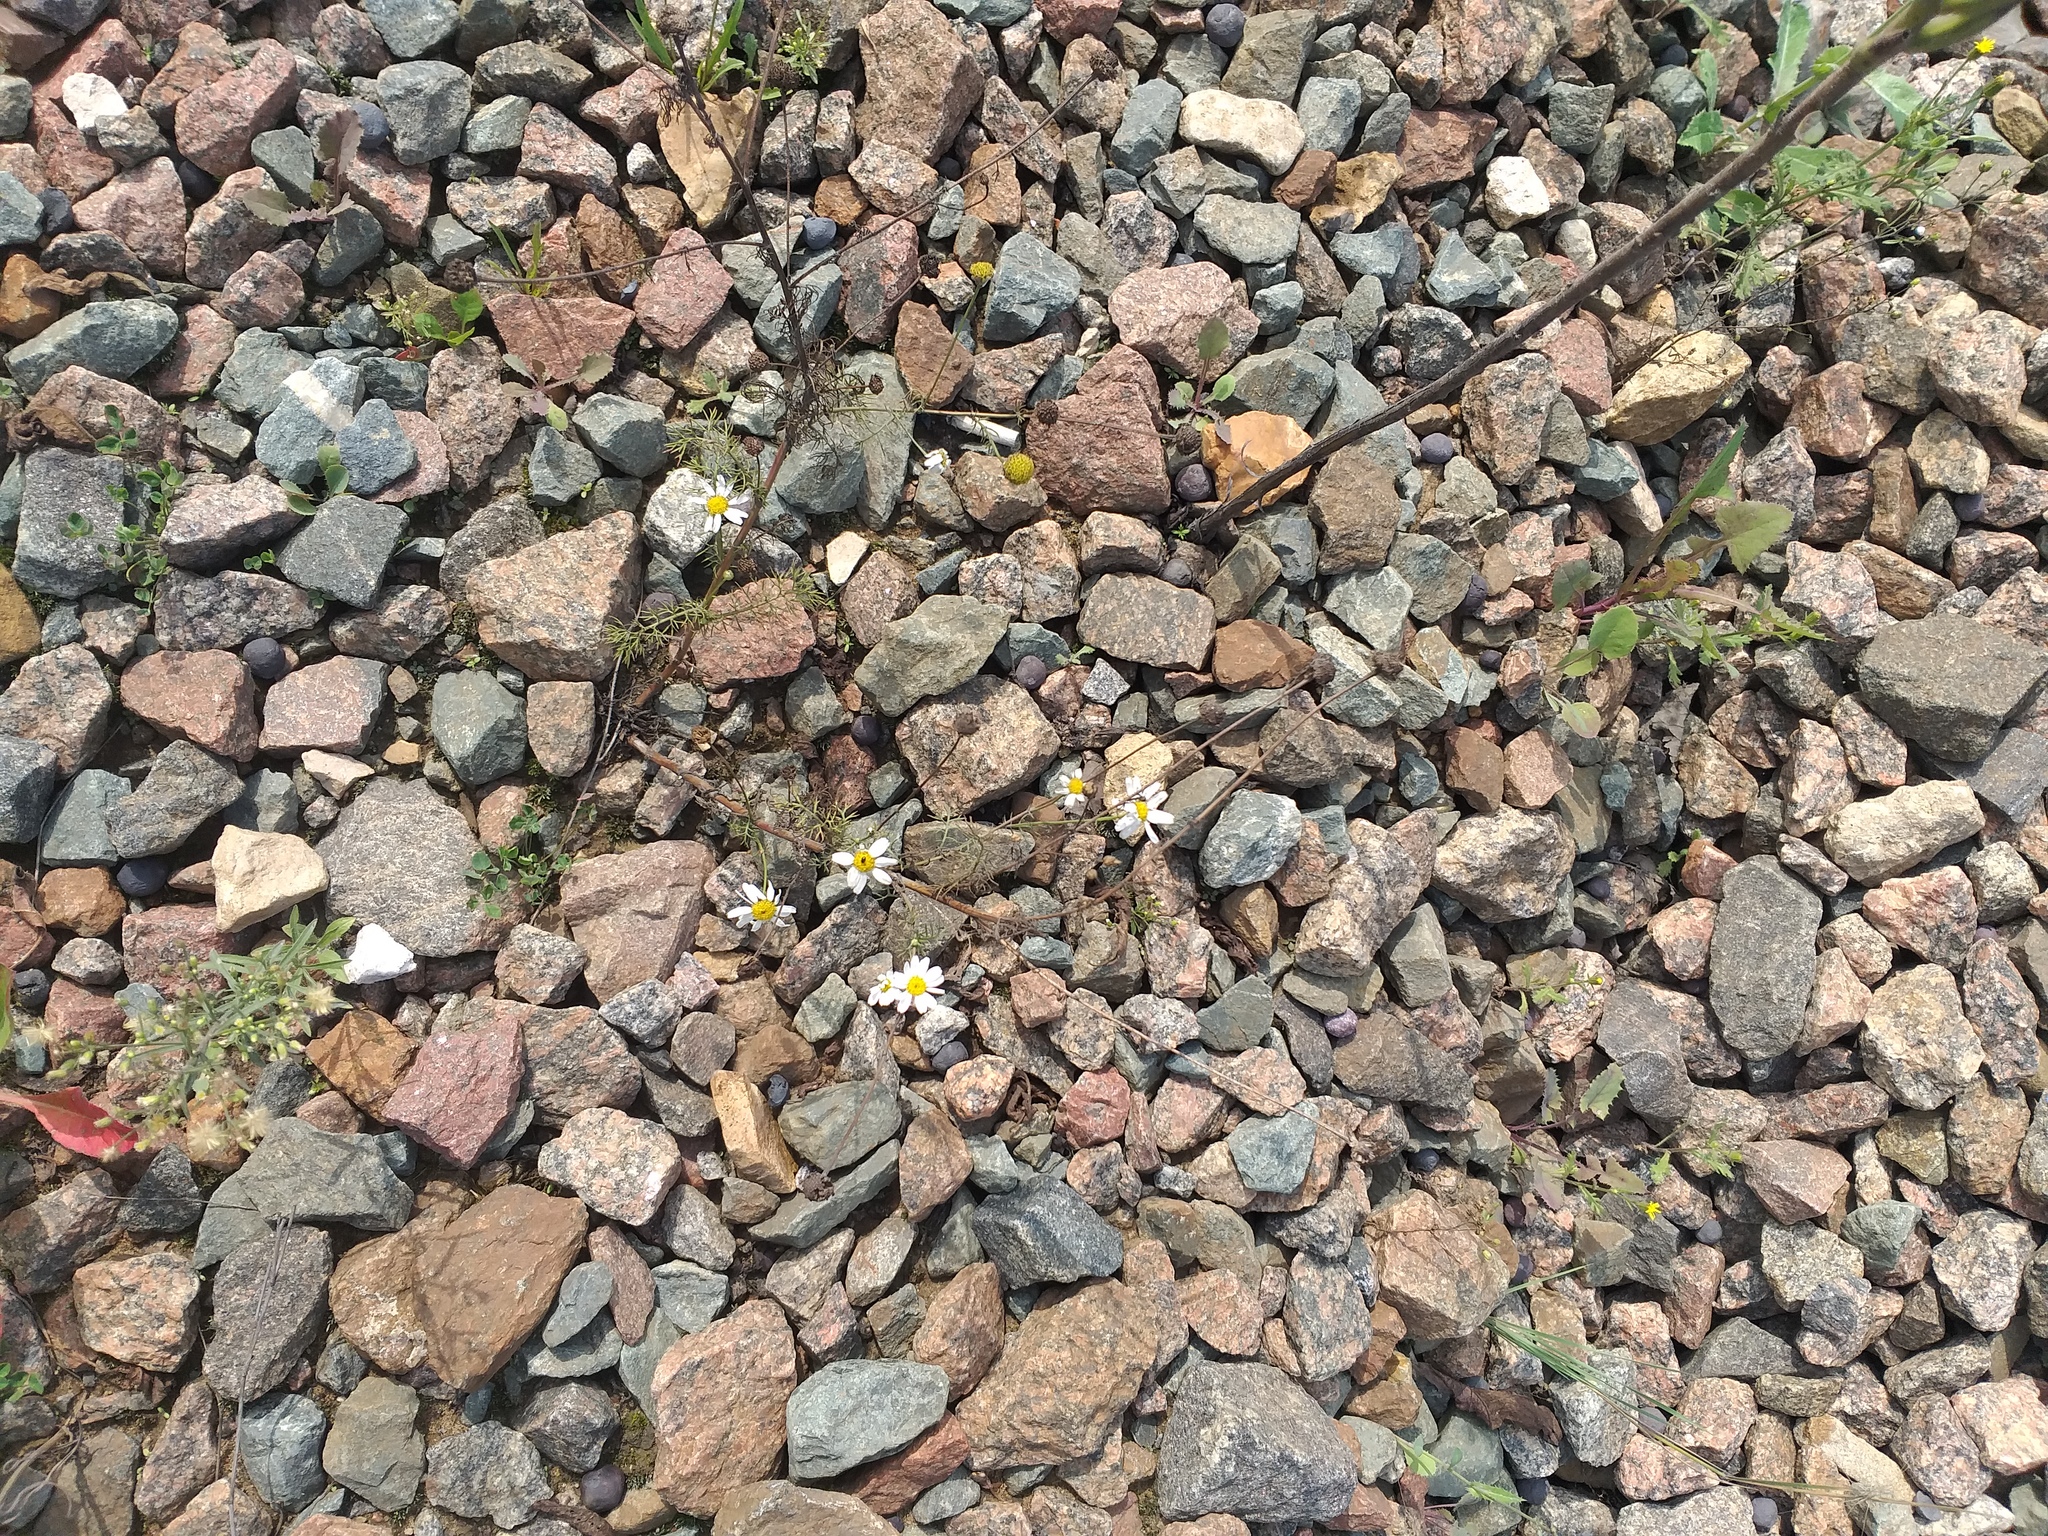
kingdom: Plantae
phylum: Tracheophyta
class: Magnoliopsida
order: Asterales
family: Asteraceae
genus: Tripleurospermum
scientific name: Tripleurospermum inodorum
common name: Scentless mayweed
